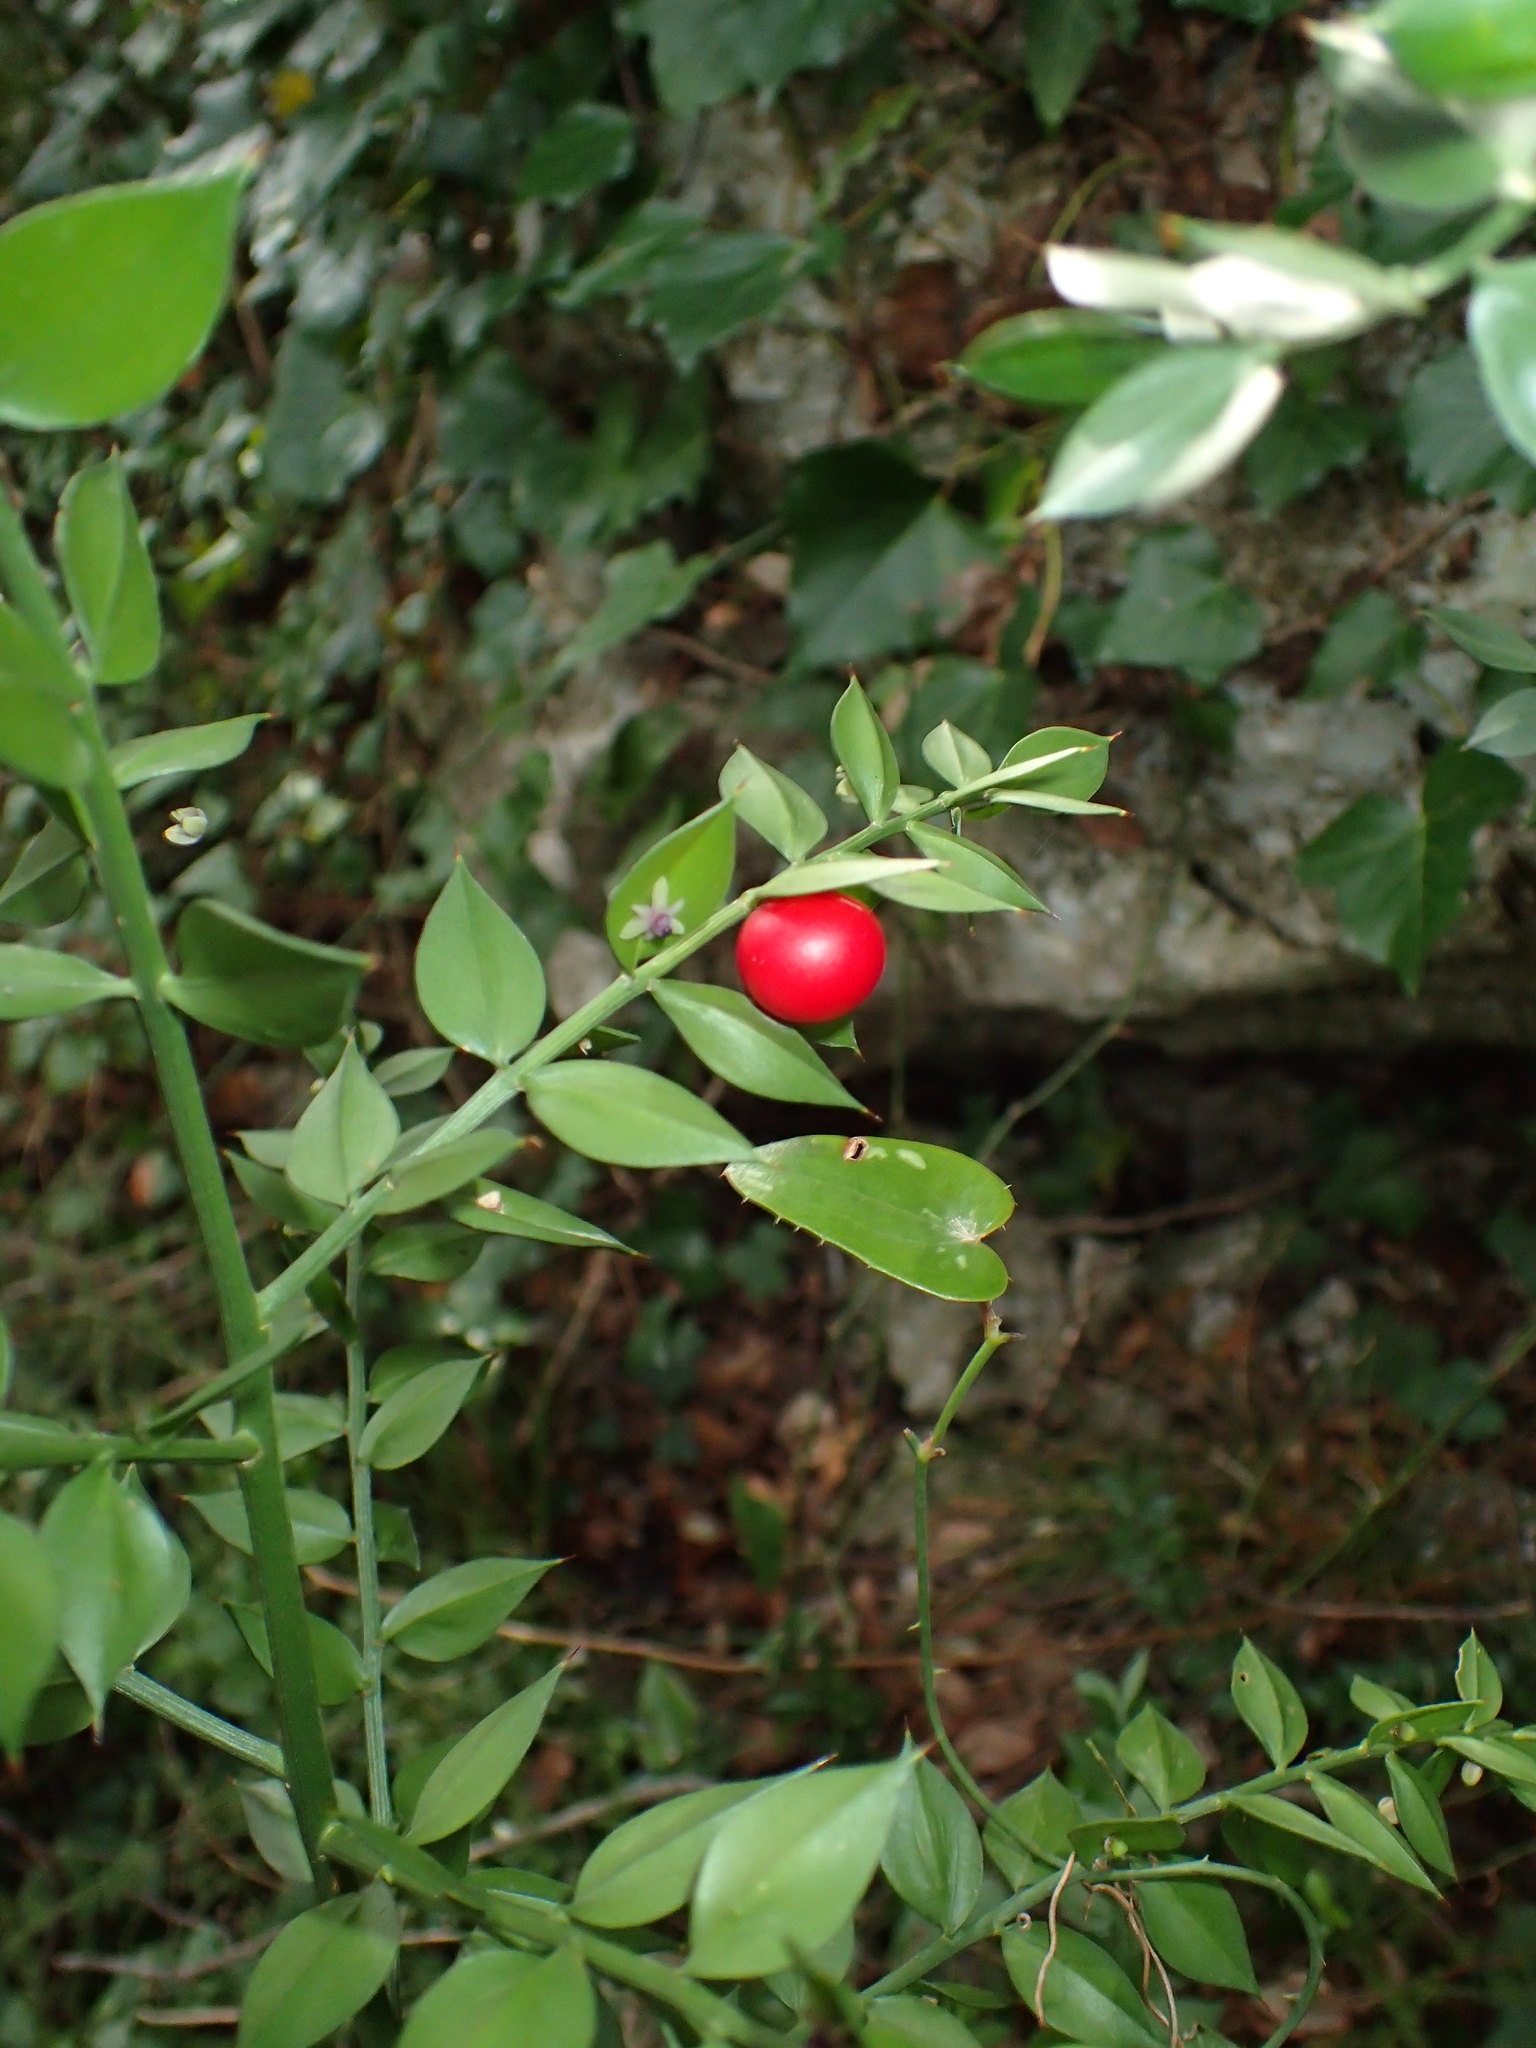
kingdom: Plantae
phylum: Tracheophyta
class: Liliopsida
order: Asparagales
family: Asparagaceae
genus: Ruscus
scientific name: Ruscus aculeatus
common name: Butcher's-broom
